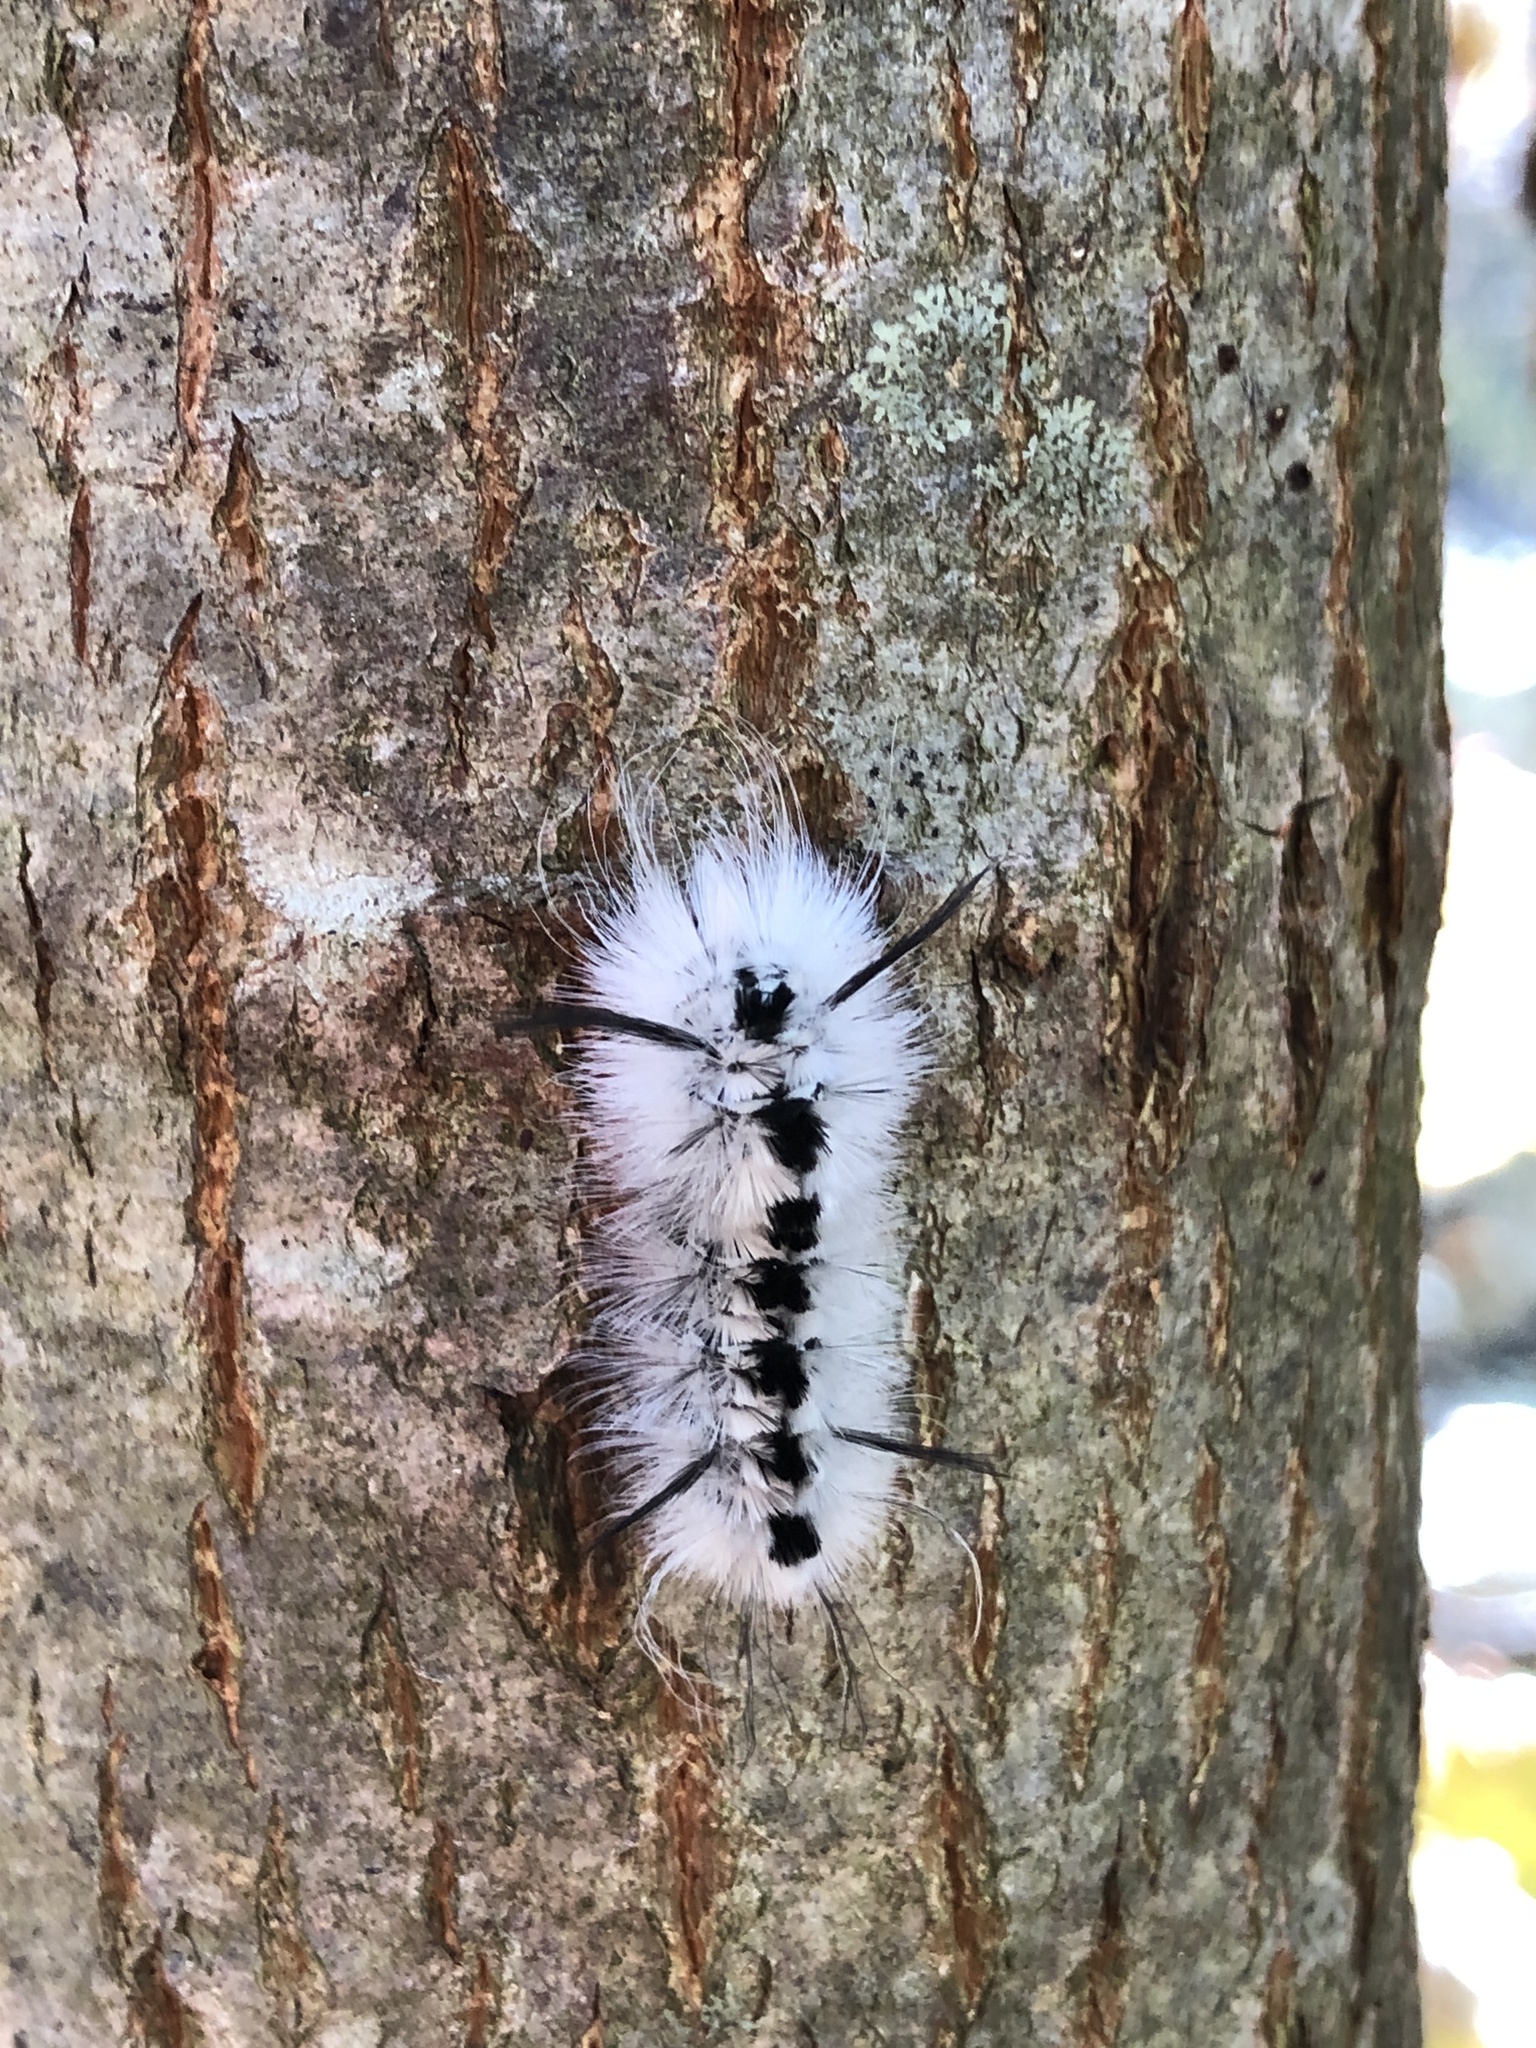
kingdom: Animalia
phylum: Arthropoda
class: Insecta
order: Lepidoptera
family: Erebidae
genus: Lophocampa
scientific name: Lophocampa caryae
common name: Hickory tussock moth
